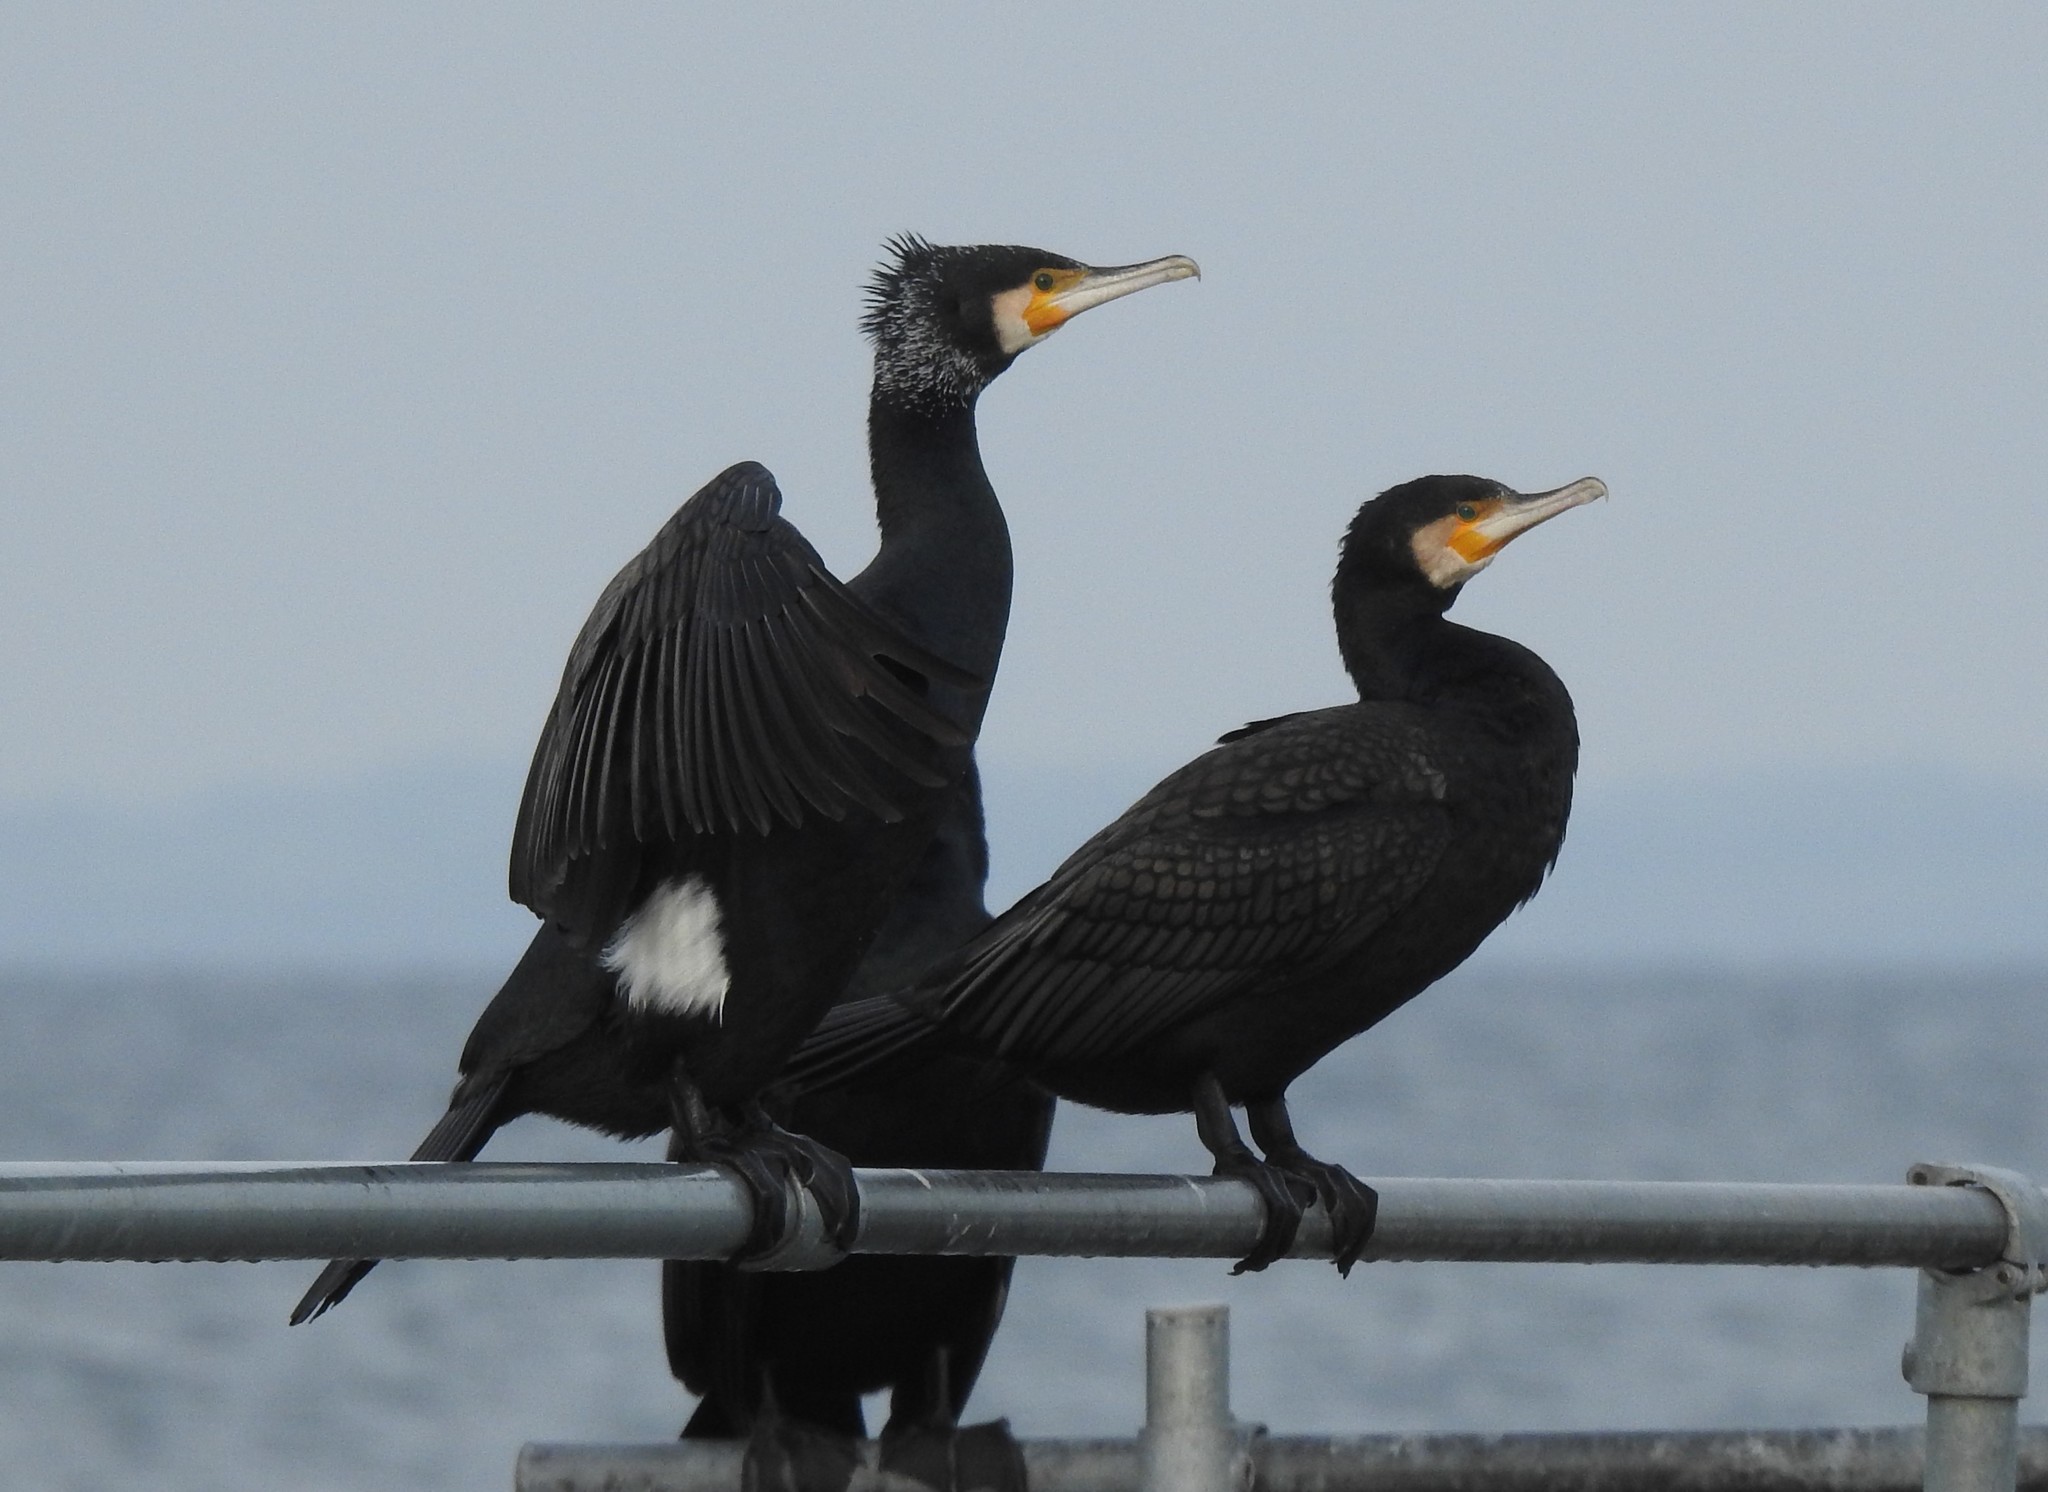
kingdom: Animalia
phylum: Chordata
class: Aves
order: Suliformes
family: Phalacrocoracidae
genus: Phalacrocorax
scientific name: Phalacrocorax carbo
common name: Great cormorant
